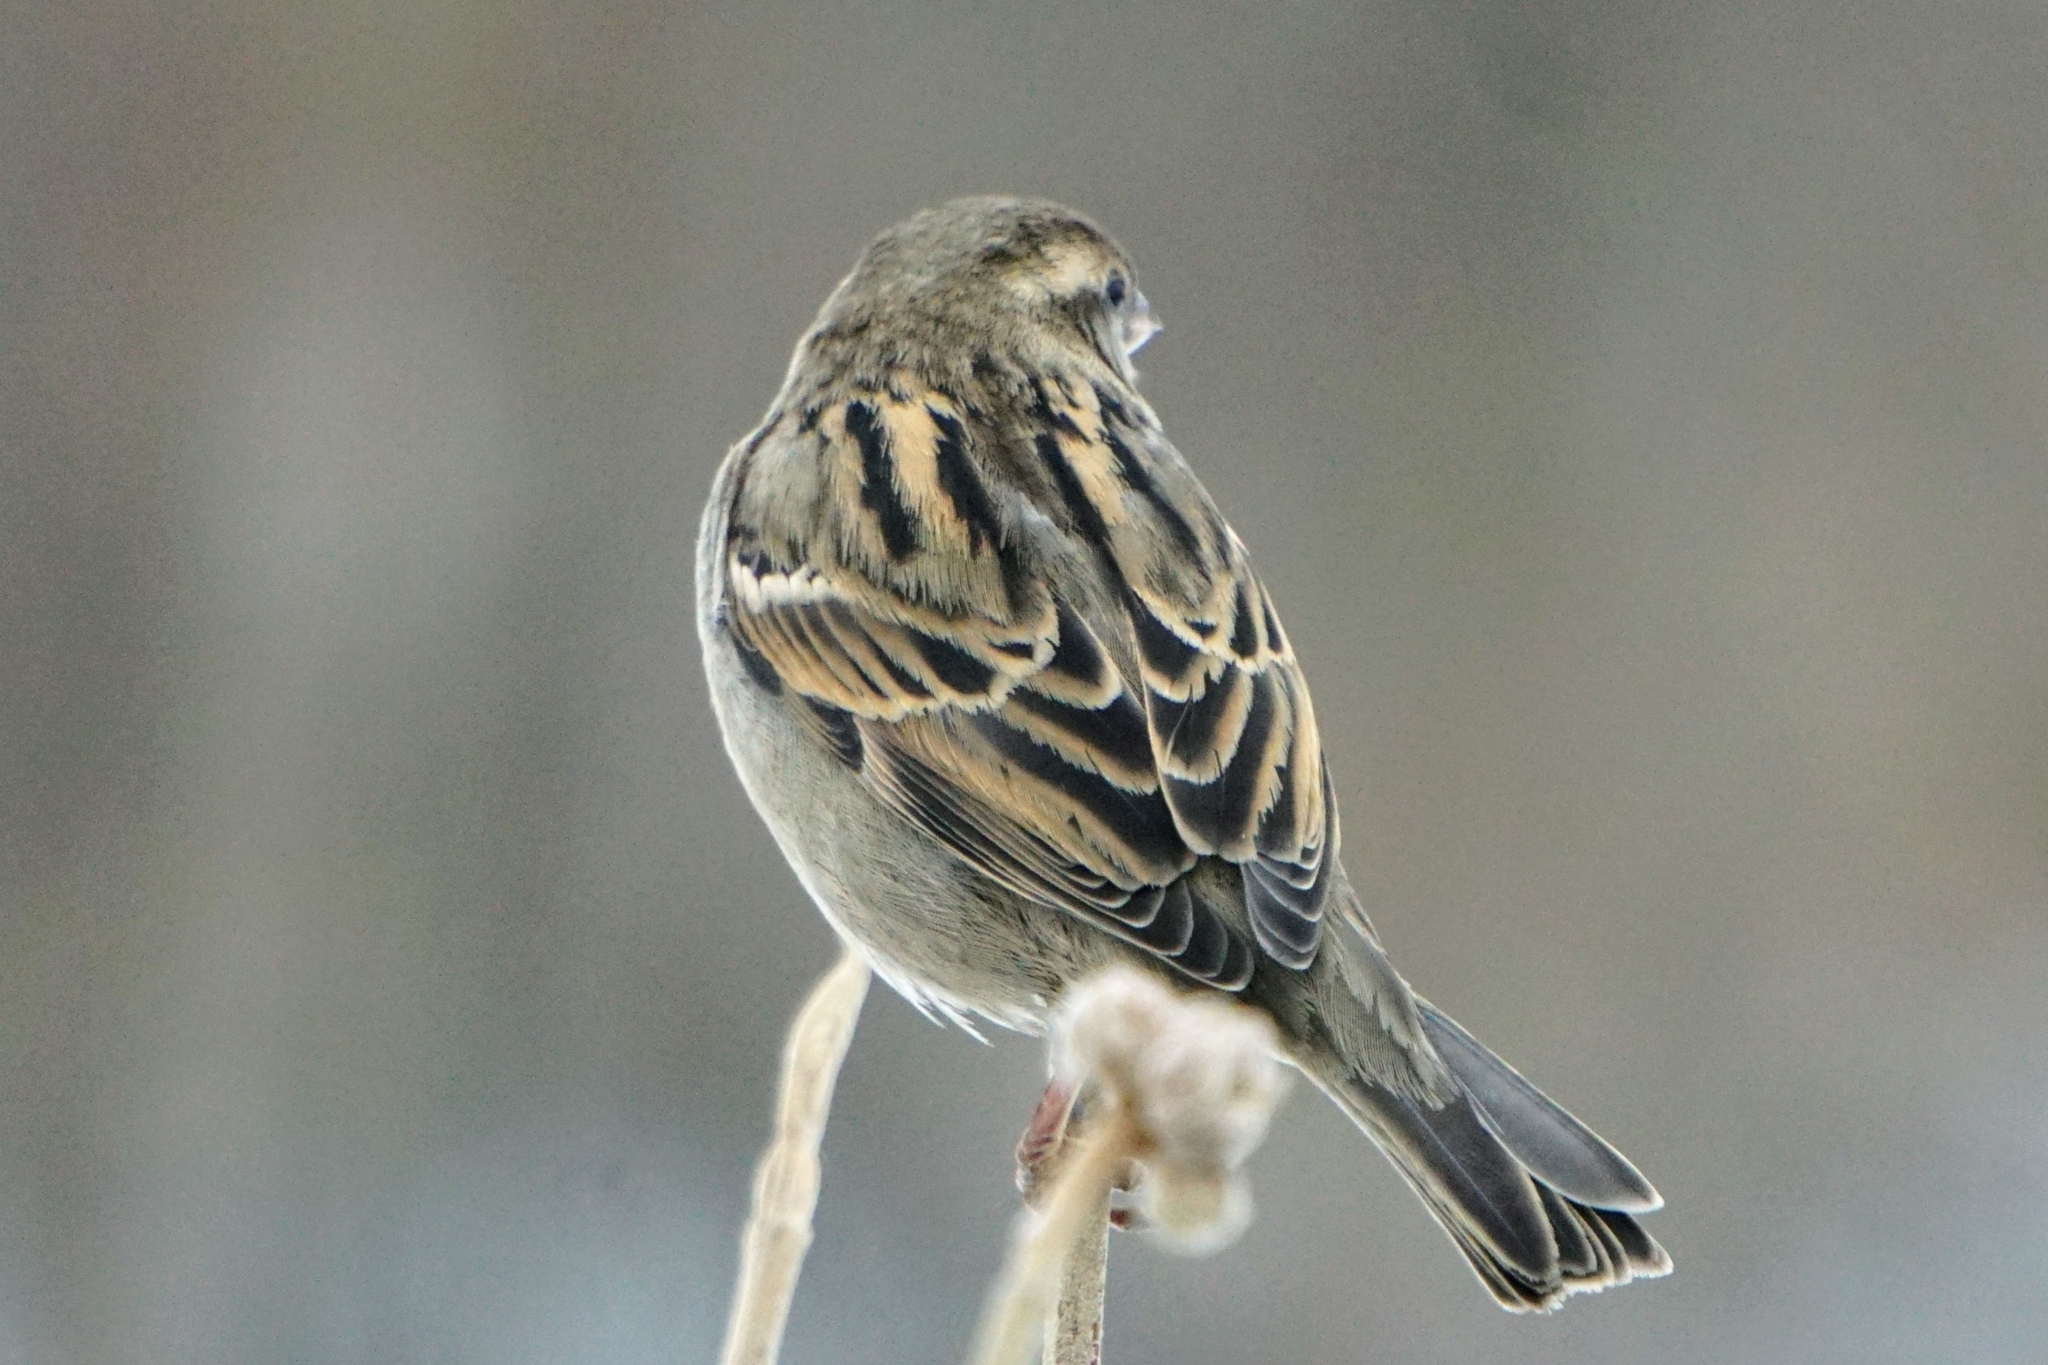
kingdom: Animalia
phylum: Chordata
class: Aves
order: Passeriformes
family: Passeridae
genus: Passer
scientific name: Passer domesticus
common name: House sparrow
